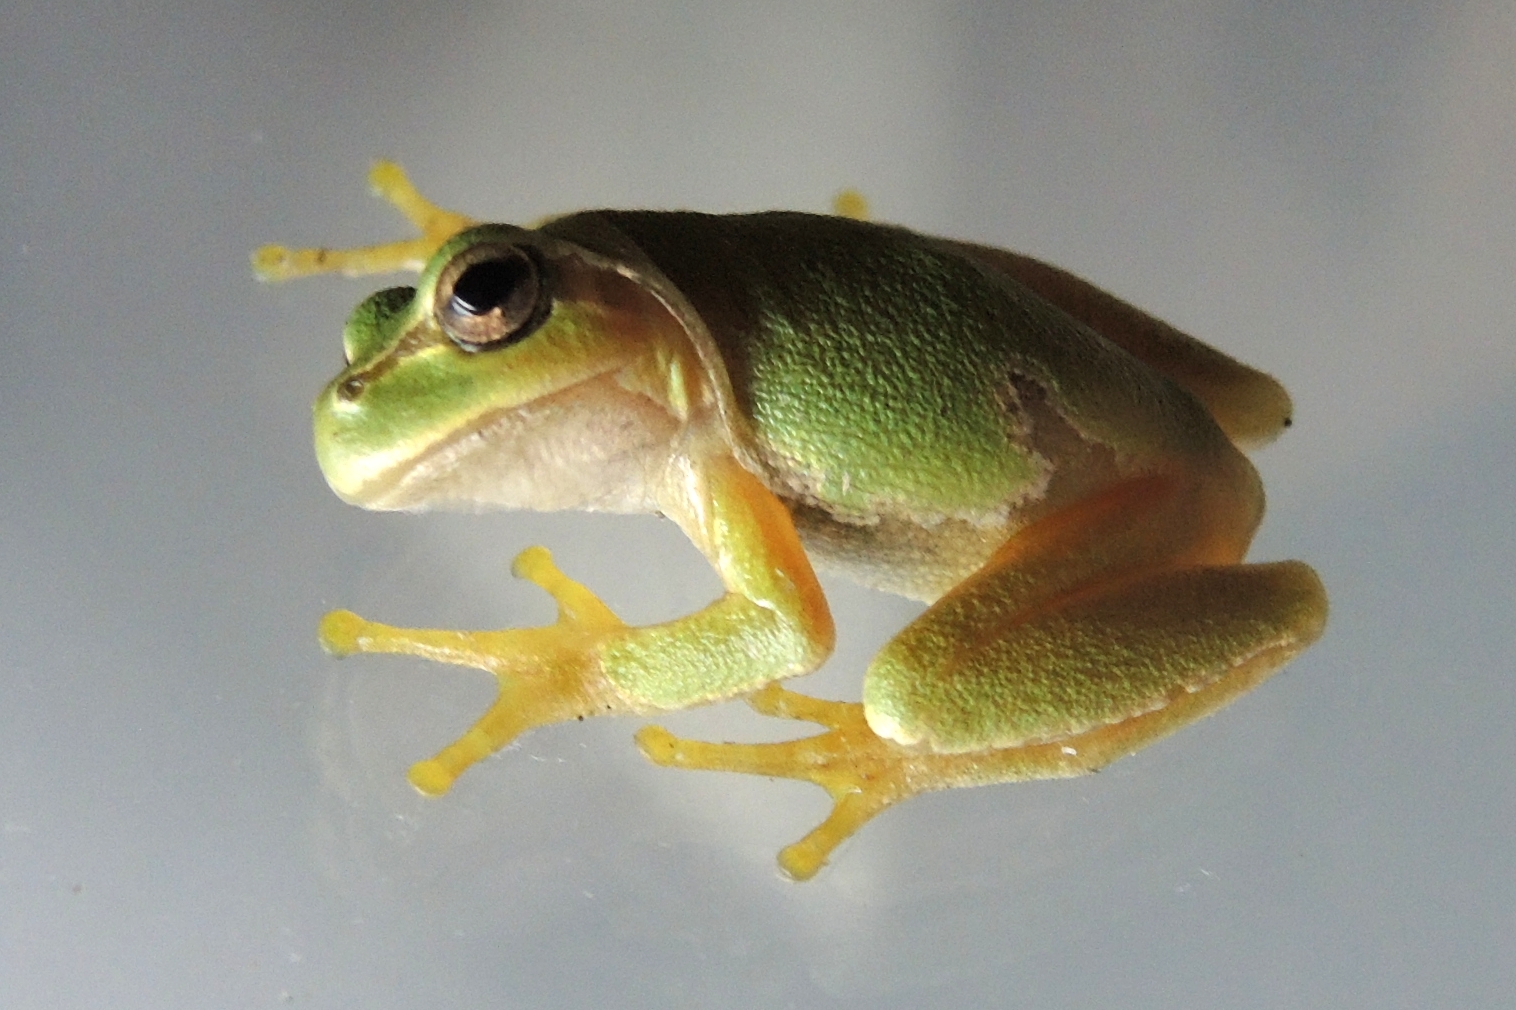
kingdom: Animalia
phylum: Chordata
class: Amphibia
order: Anura
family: Hylidae
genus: Hyla
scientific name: Hyla orientalis
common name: Caucasian treefrog
